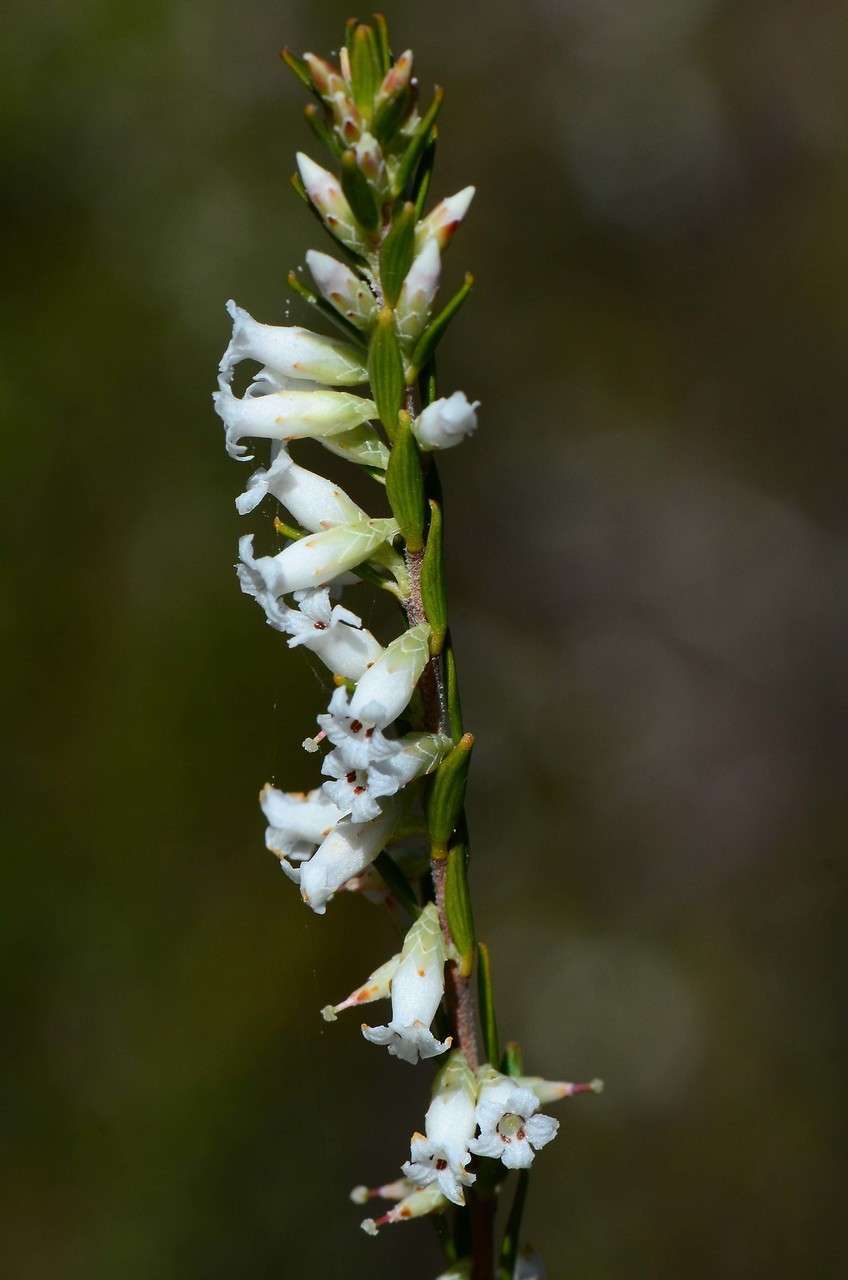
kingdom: Plantae
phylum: Tracheophyta
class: Magnoliopsida
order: Ericales
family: Ericaceae
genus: Epacris
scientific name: Epacris obtusifolia
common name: Blunt-leaf australian-heath
